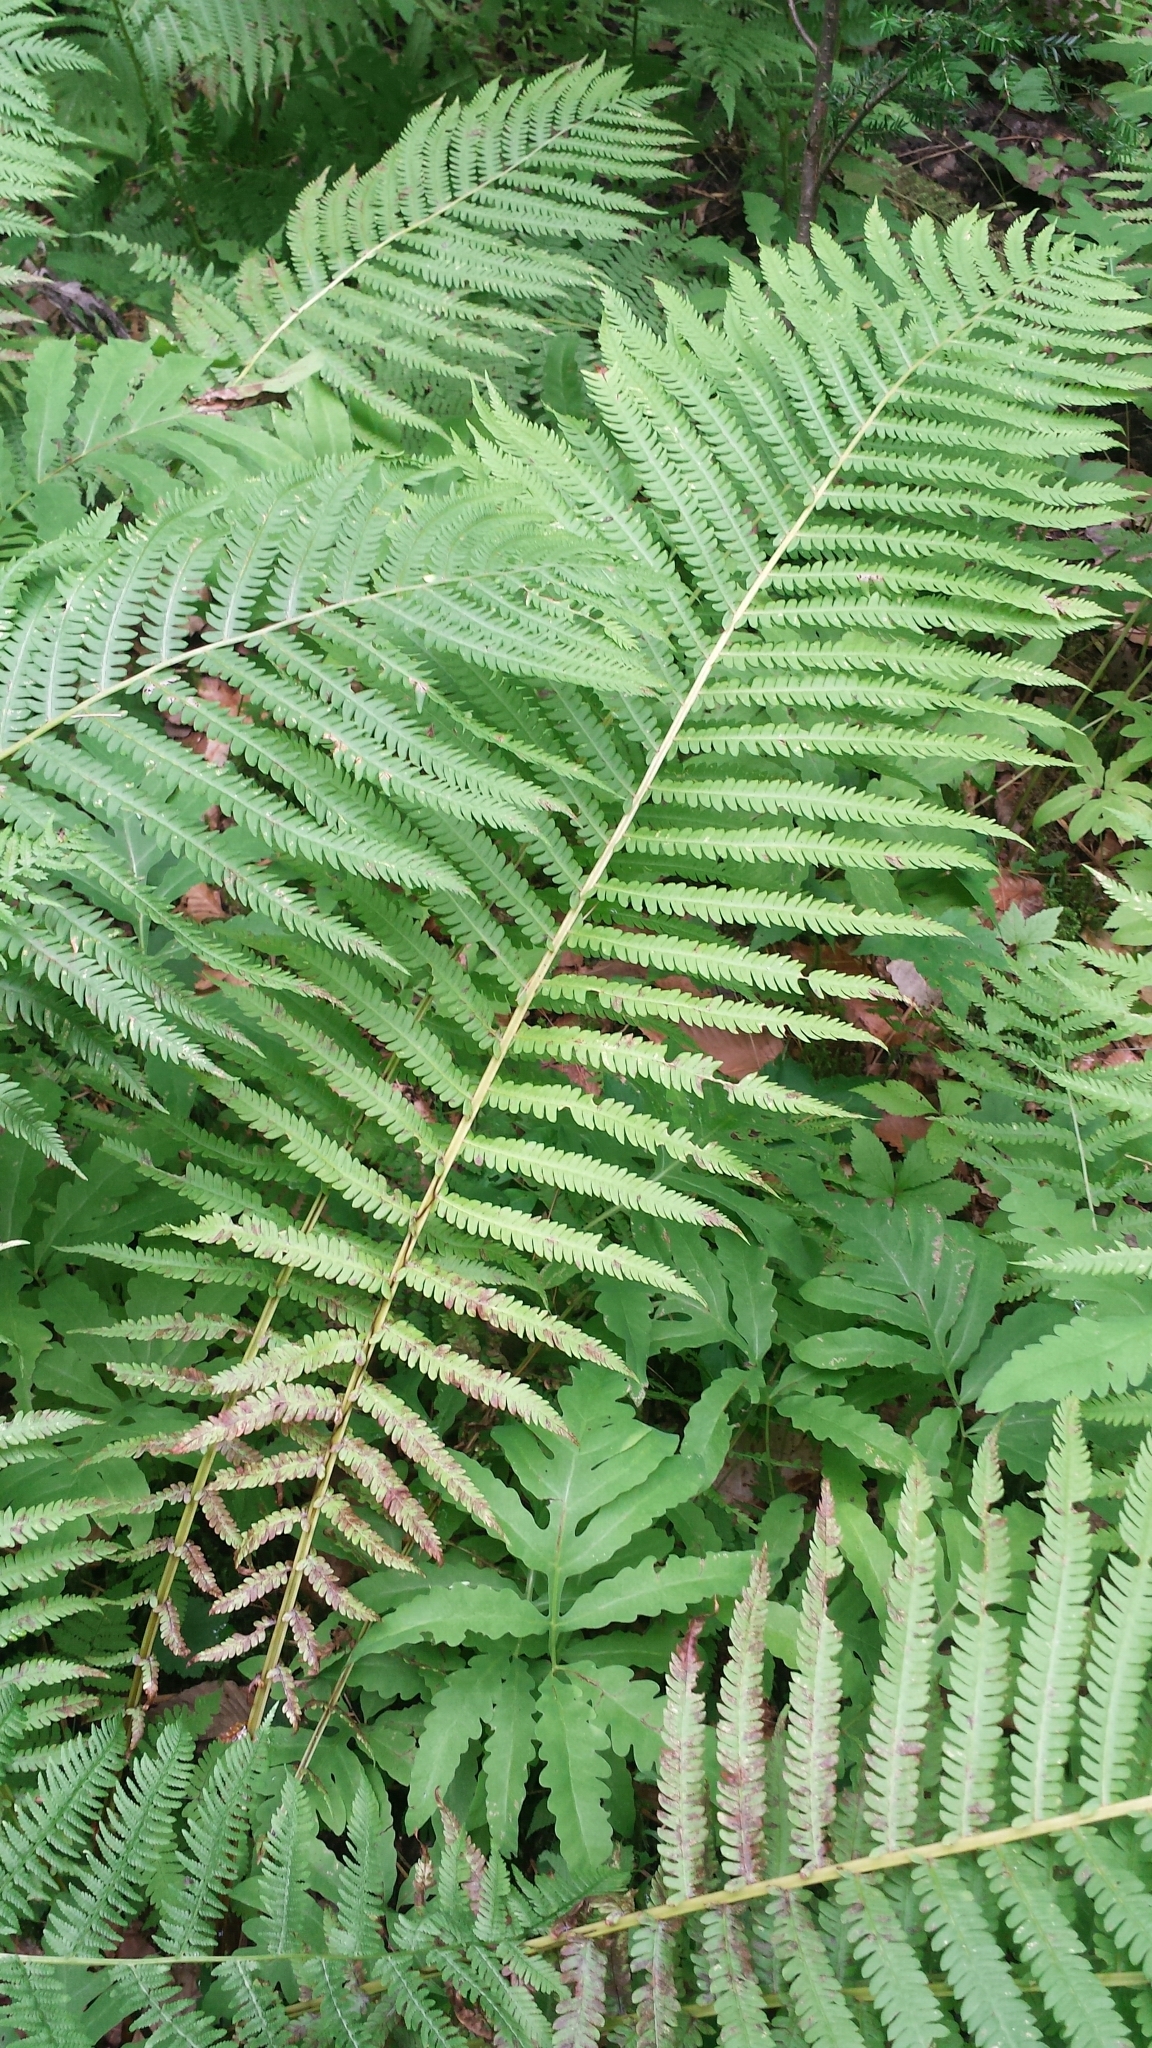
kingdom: Plantae
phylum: Tracheophyta
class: Polypodiopsida
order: Polypodiales
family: Onocleaceae
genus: Matteuccia
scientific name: Matteuccia struthiopteris
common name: Ostrich fern
